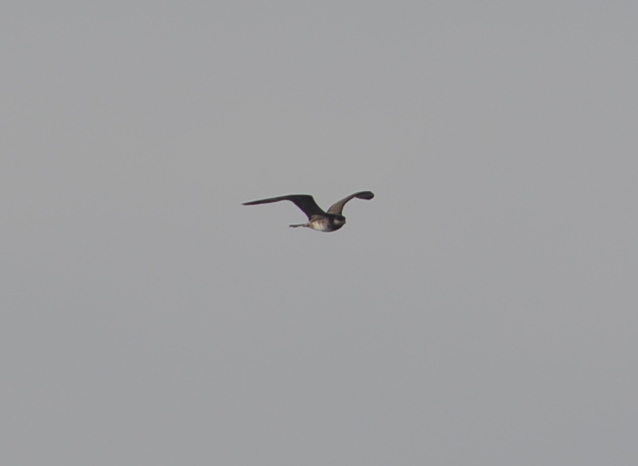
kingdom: Animalia
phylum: Chordata
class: Aves
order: Charadriiformes
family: Stercorariidae
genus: Stercorarius
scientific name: Stercorarius pomarinus
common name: Pomarine jaeger
